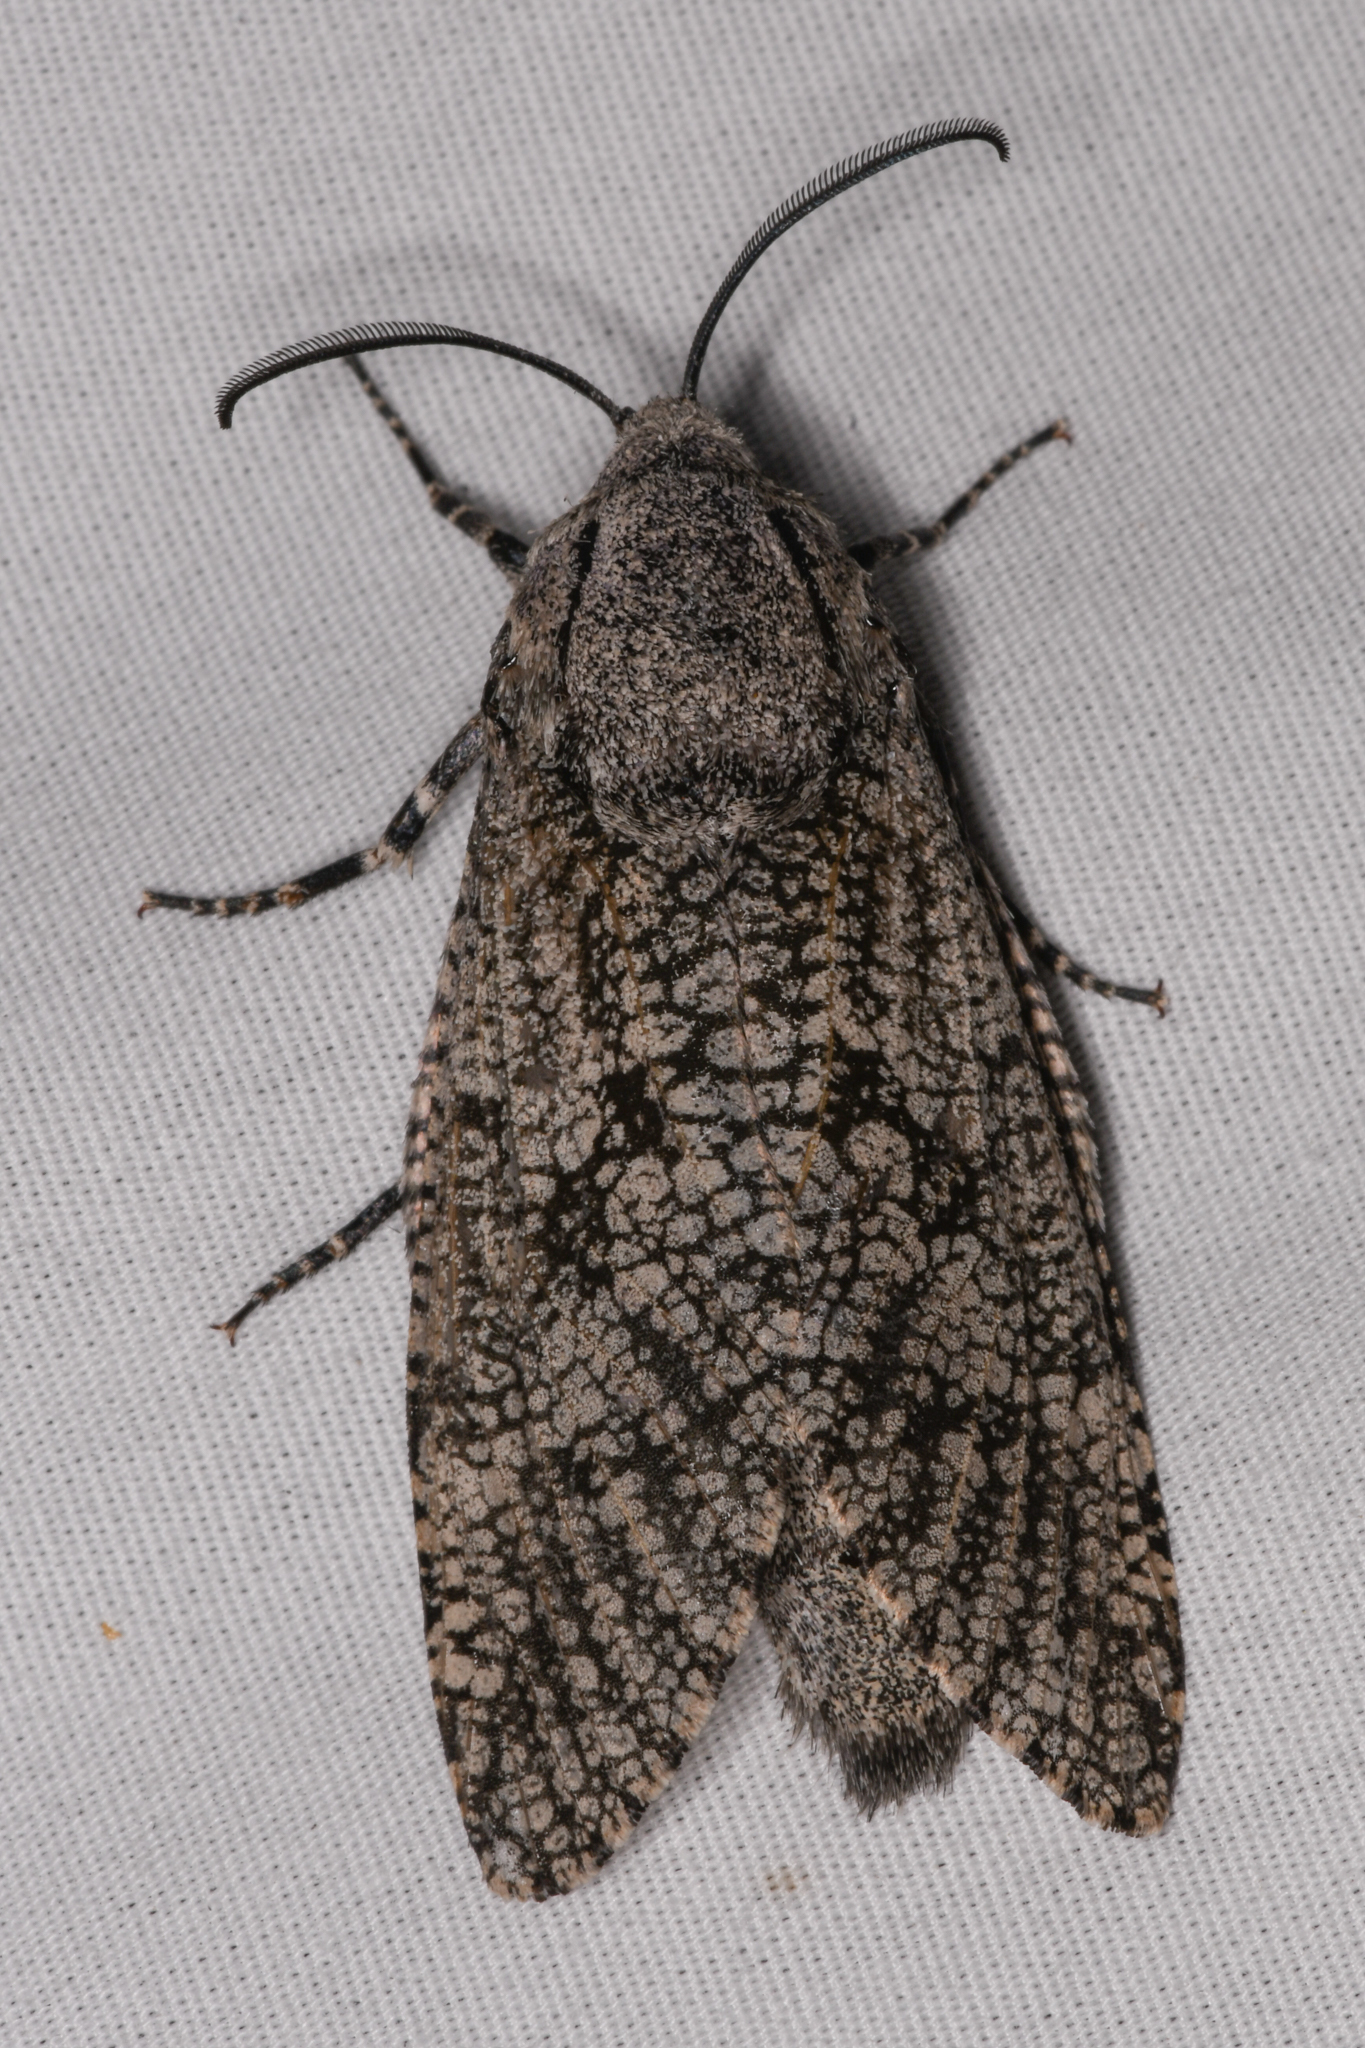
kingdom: Animalia
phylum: Arthropoda
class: Insecta
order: Lepidoptera
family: Cossidae
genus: Prionoxystus
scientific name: Prionoxystus robiniae
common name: Carpenterworm
